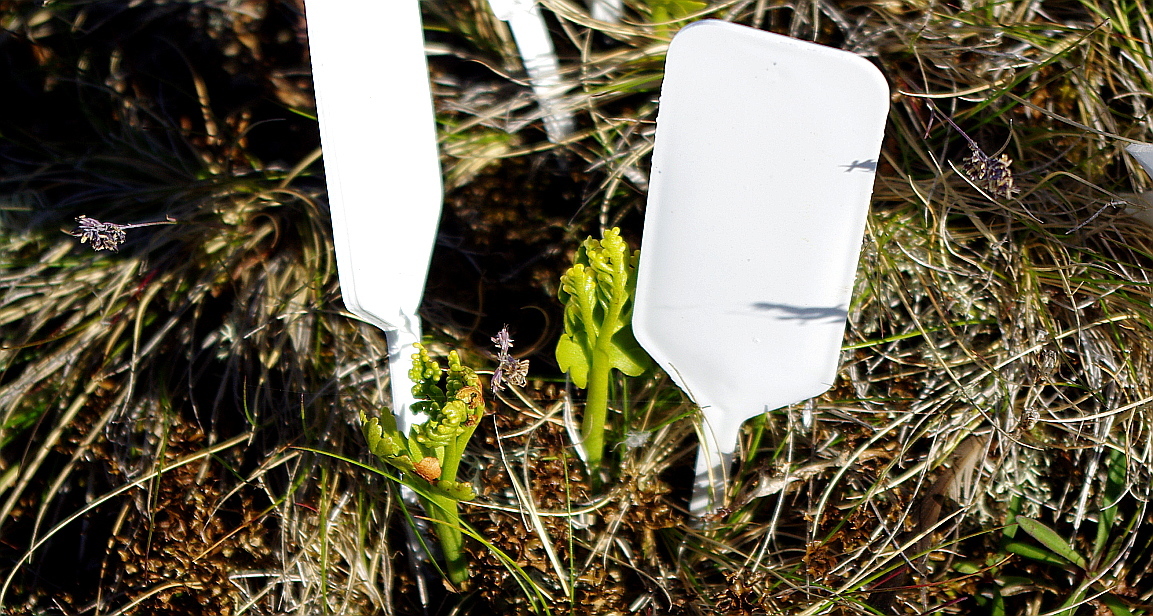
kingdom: Plantae
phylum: Tracheophyta
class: Polypodiopsida
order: Ophioglossales
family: Ophioglossaceae
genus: Botrychium
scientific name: Botrychium boreale
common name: Boreal moonwort
